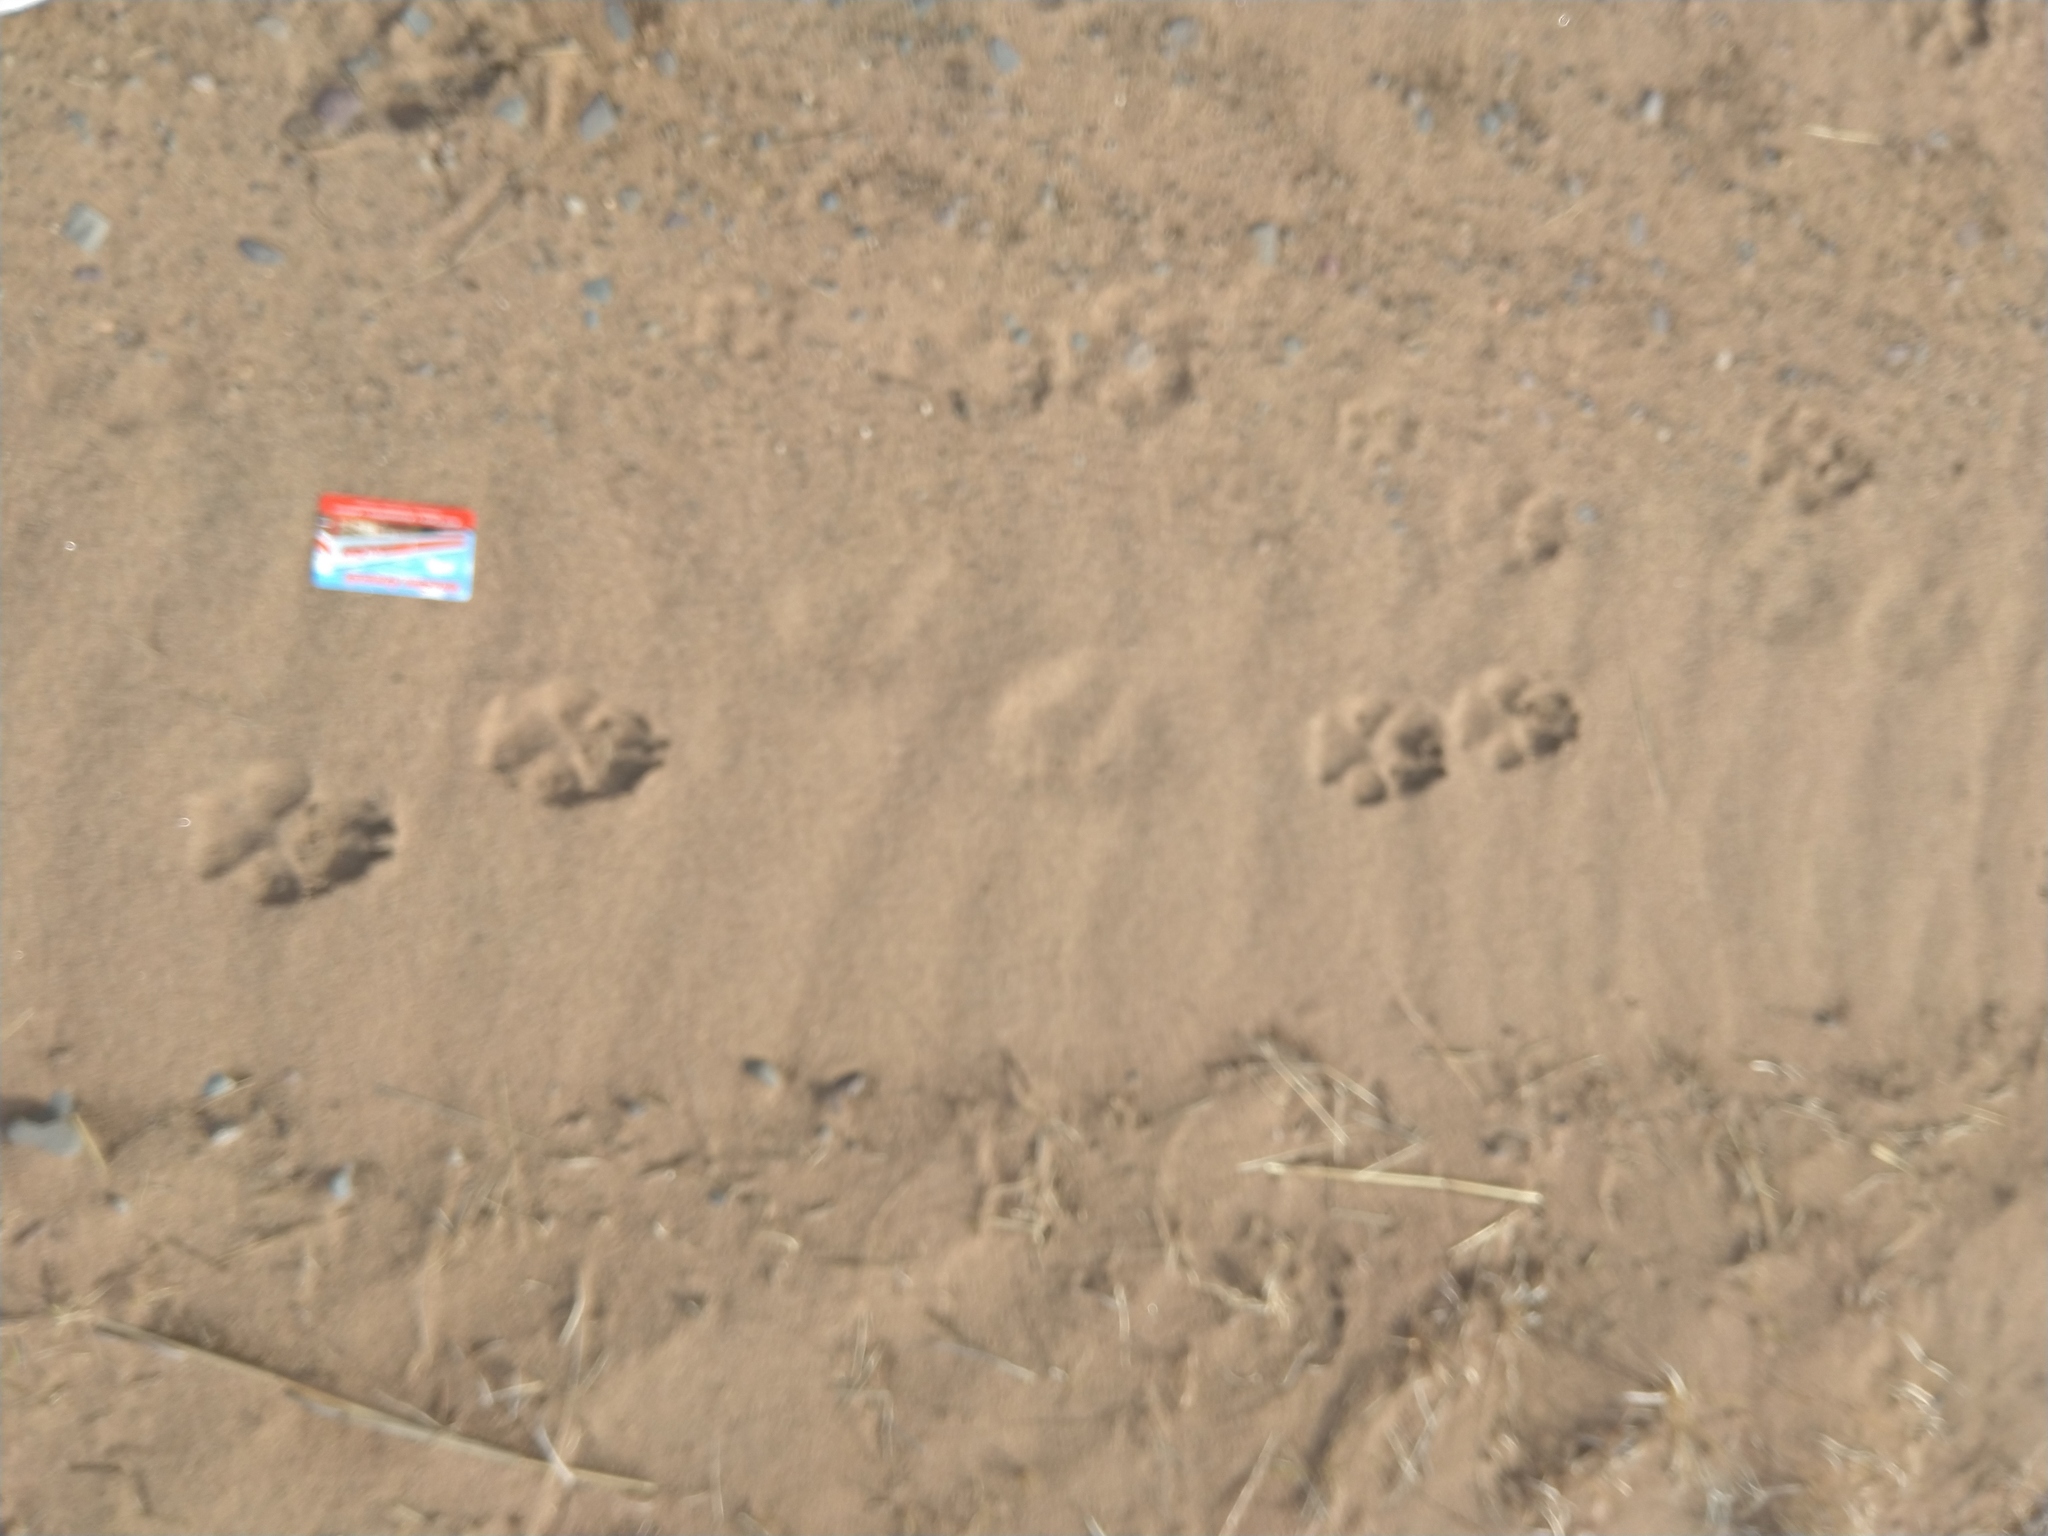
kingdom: Animalia
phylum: Chordata
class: Mammalia
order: Carnivora
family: Canidae
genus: Canis
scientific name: Canis latrans
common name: Coyote
